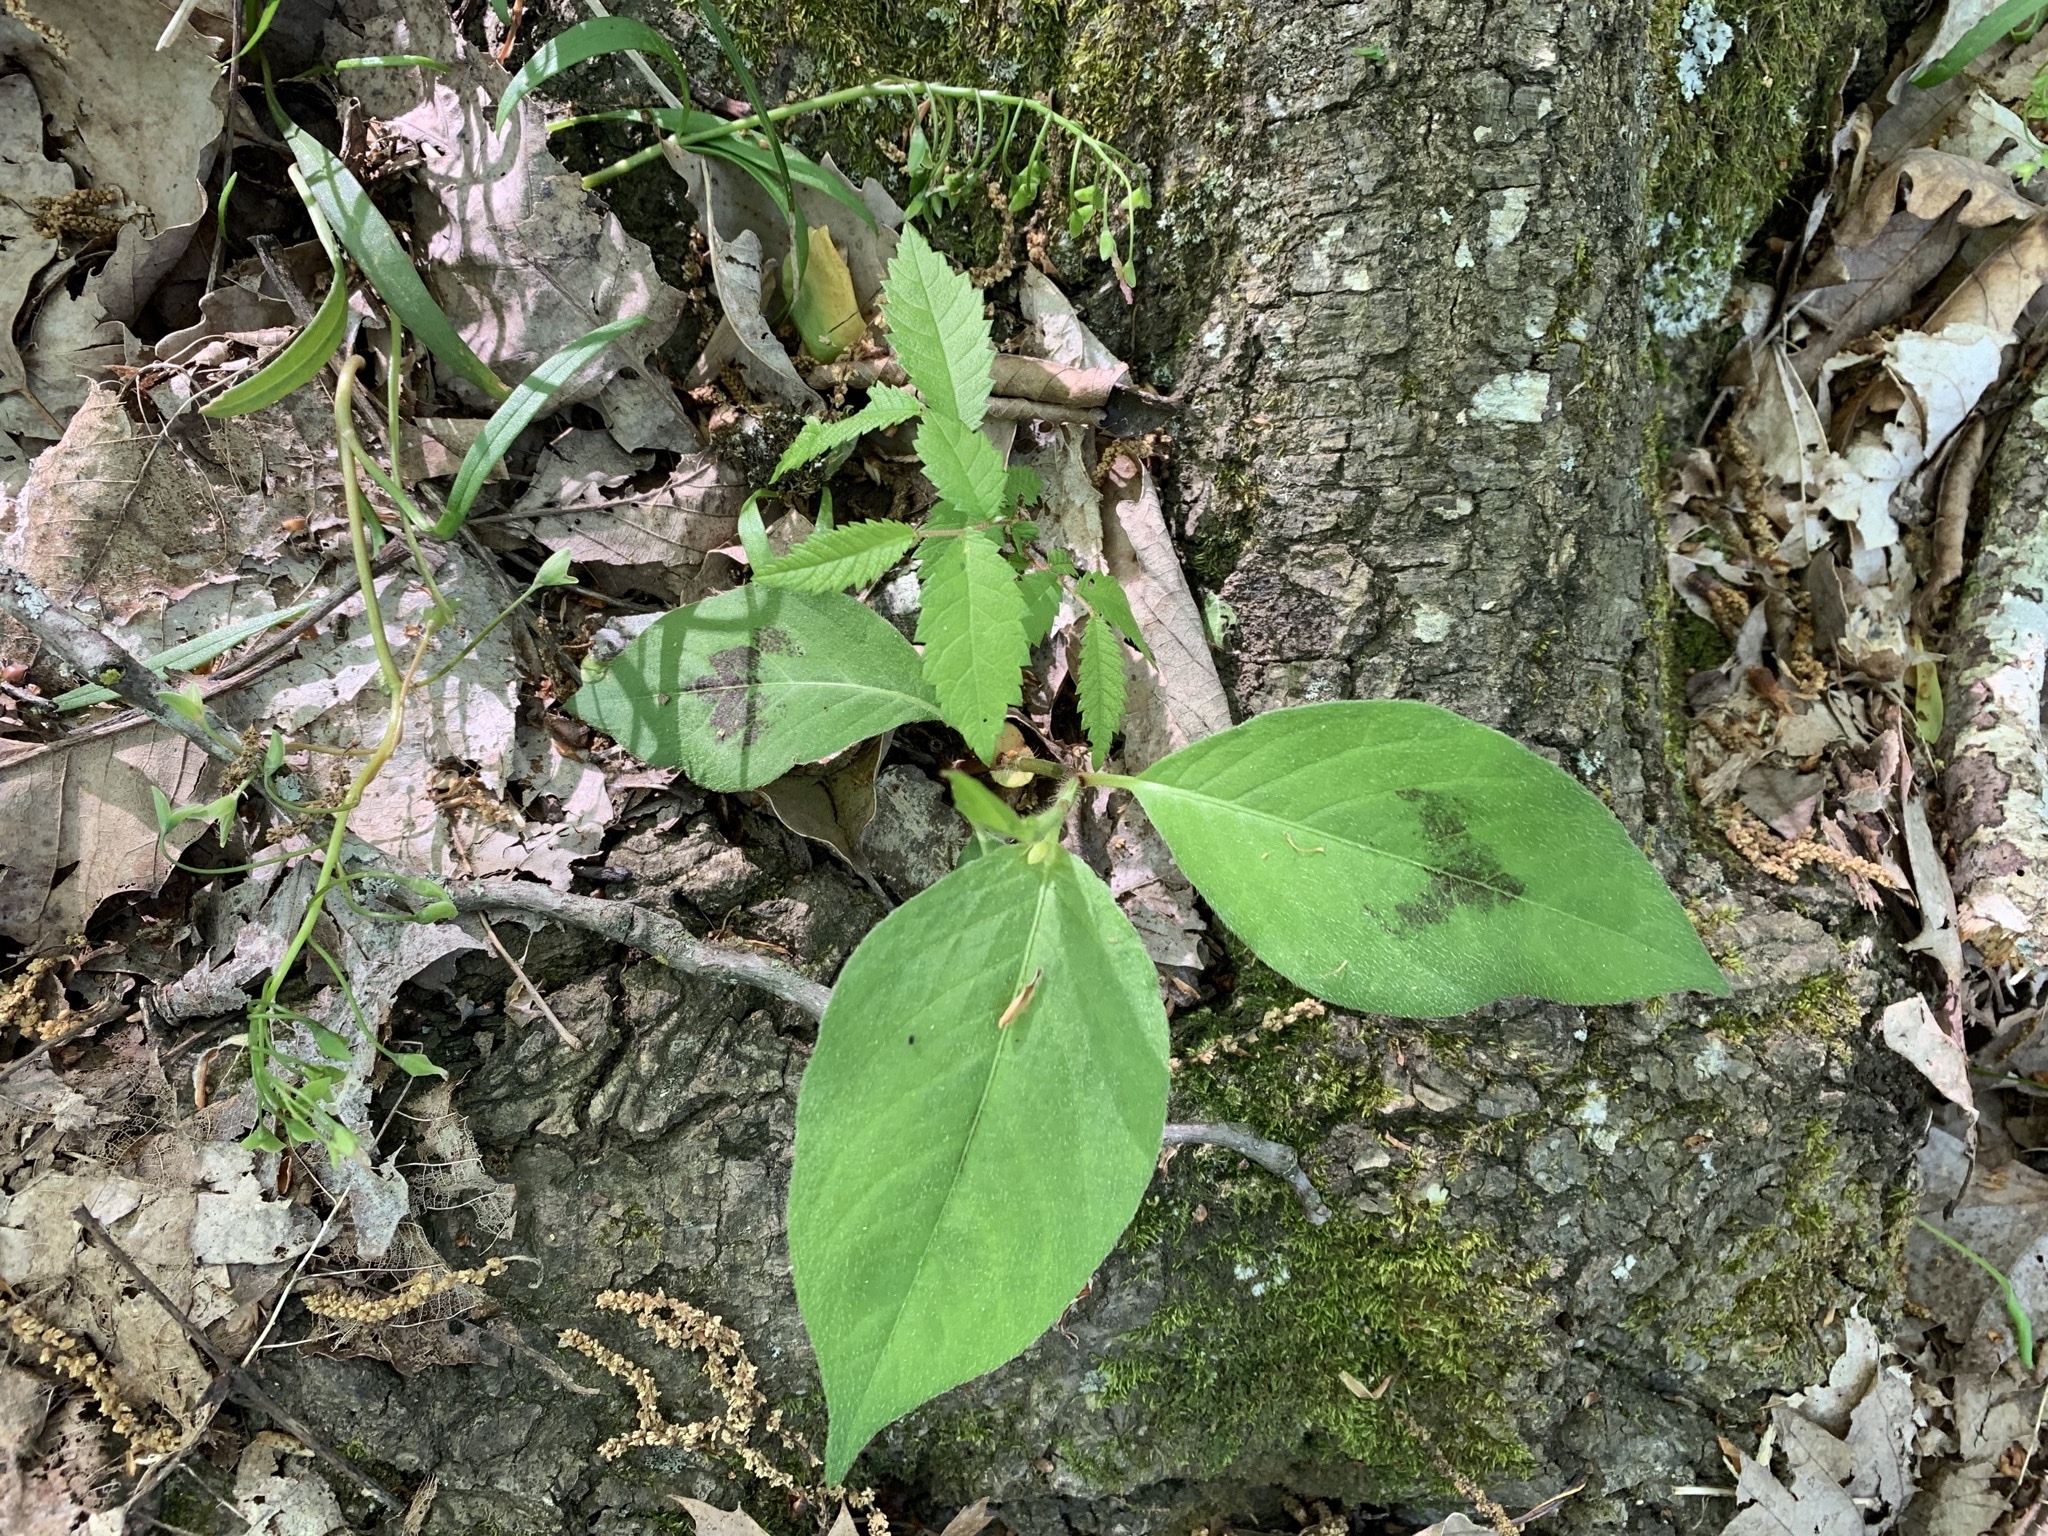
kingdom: Plantae
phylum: Tracheophyta
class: Magnoliopsida
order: Caryophyllales
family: Polygonaceae
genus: Persicaria
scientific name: Persicaria virginiana
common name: Jumpseed
